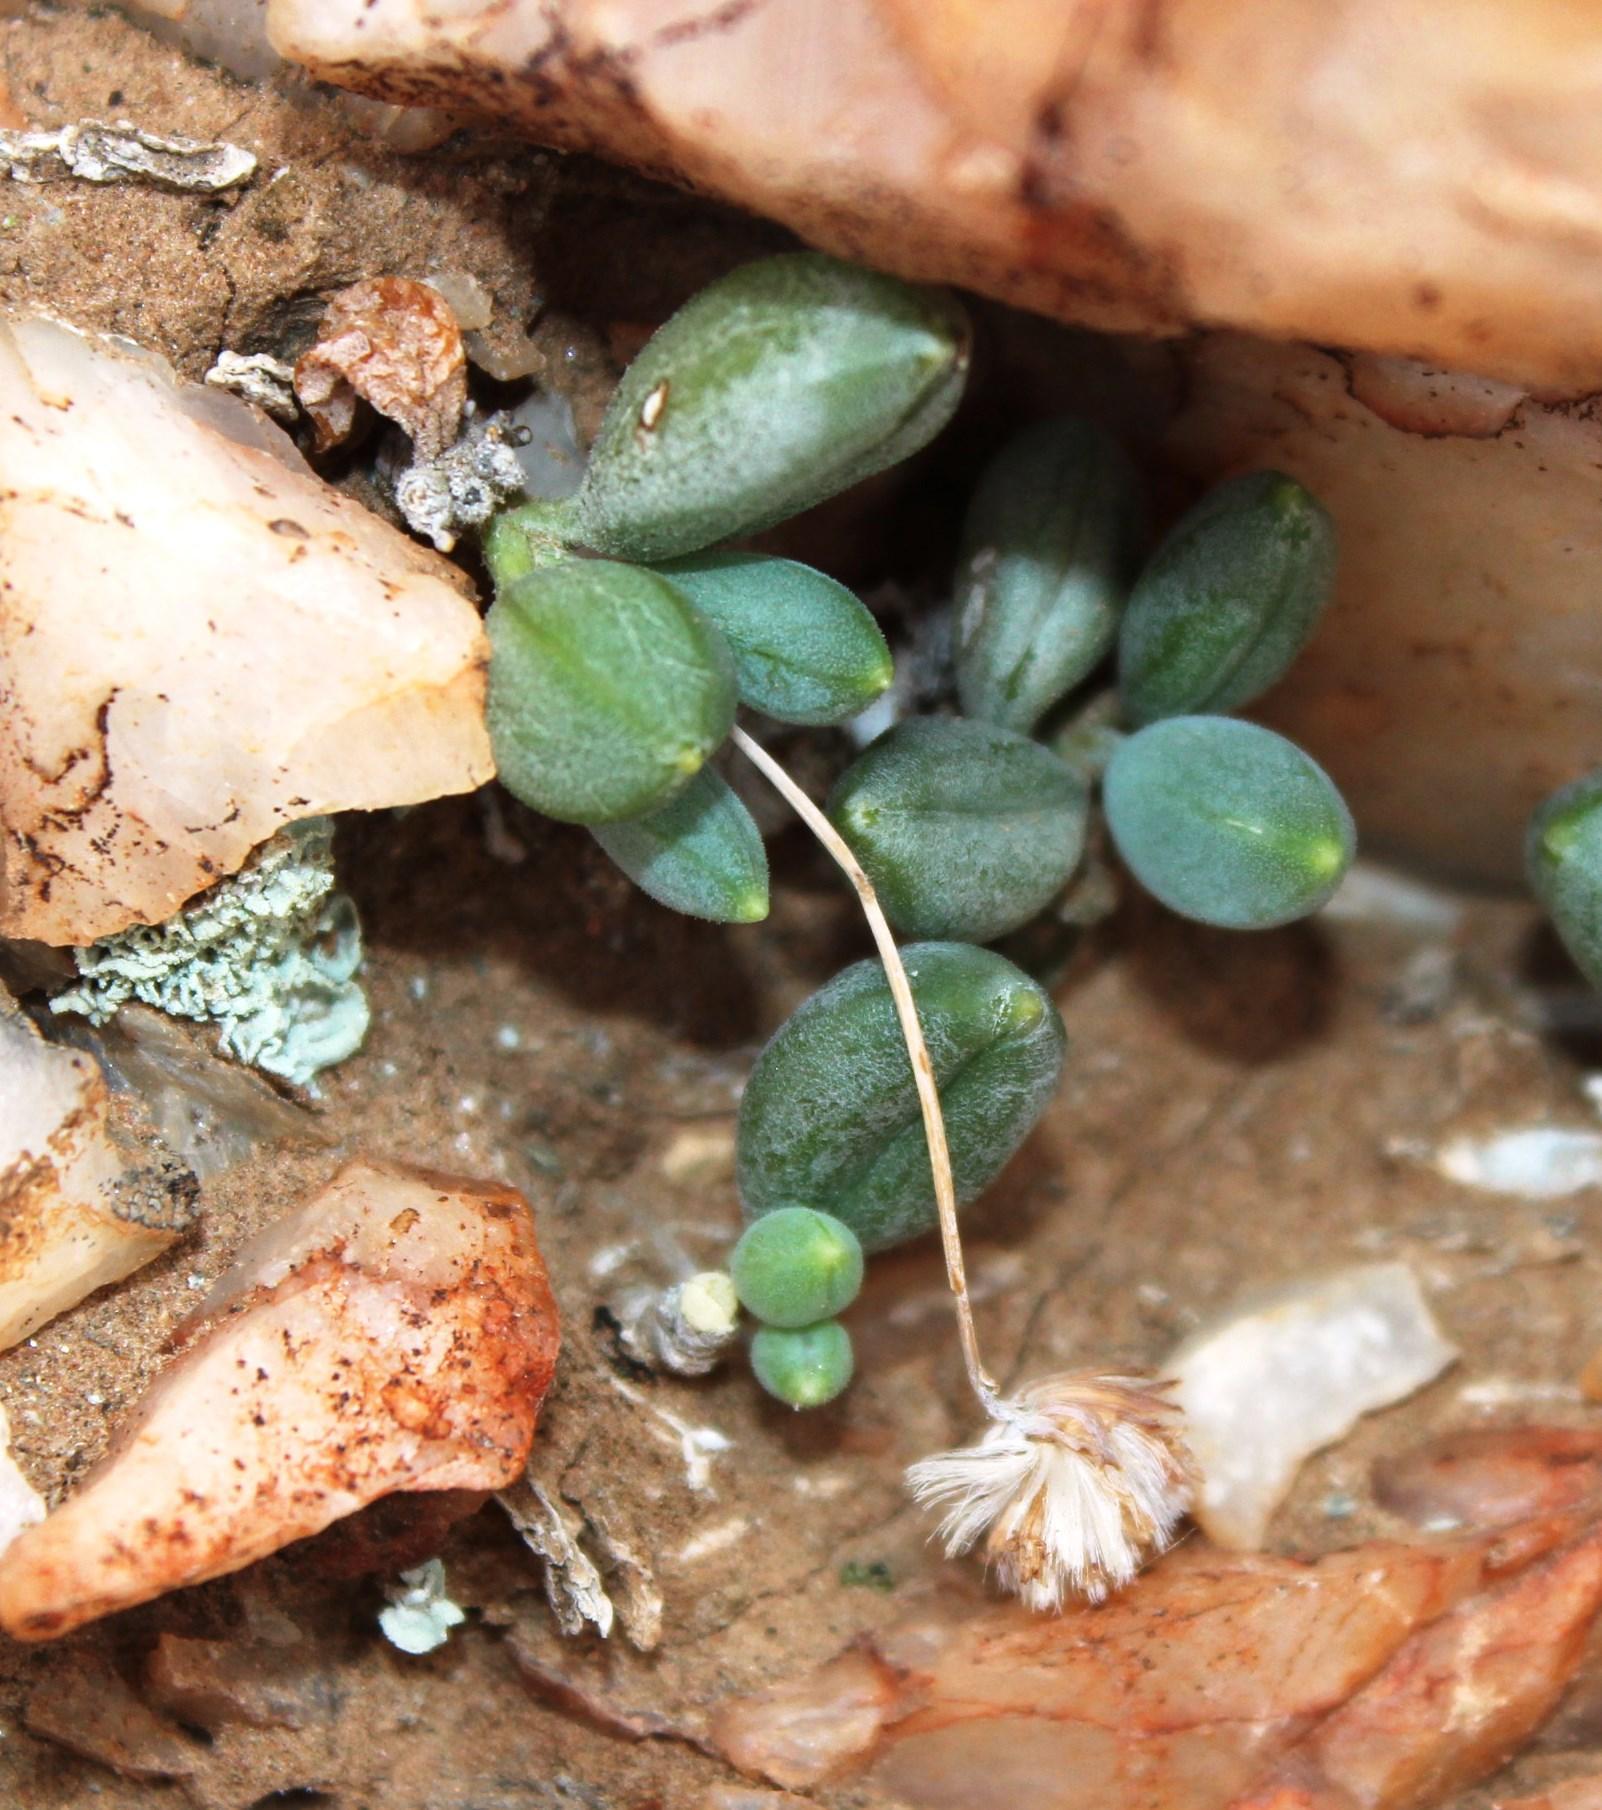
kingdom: Plantae
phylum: Tracheophyta
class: Magnoliopsida
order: Asterales
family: Asteraceae
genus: Curio
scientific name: Curio sulcicalyx
